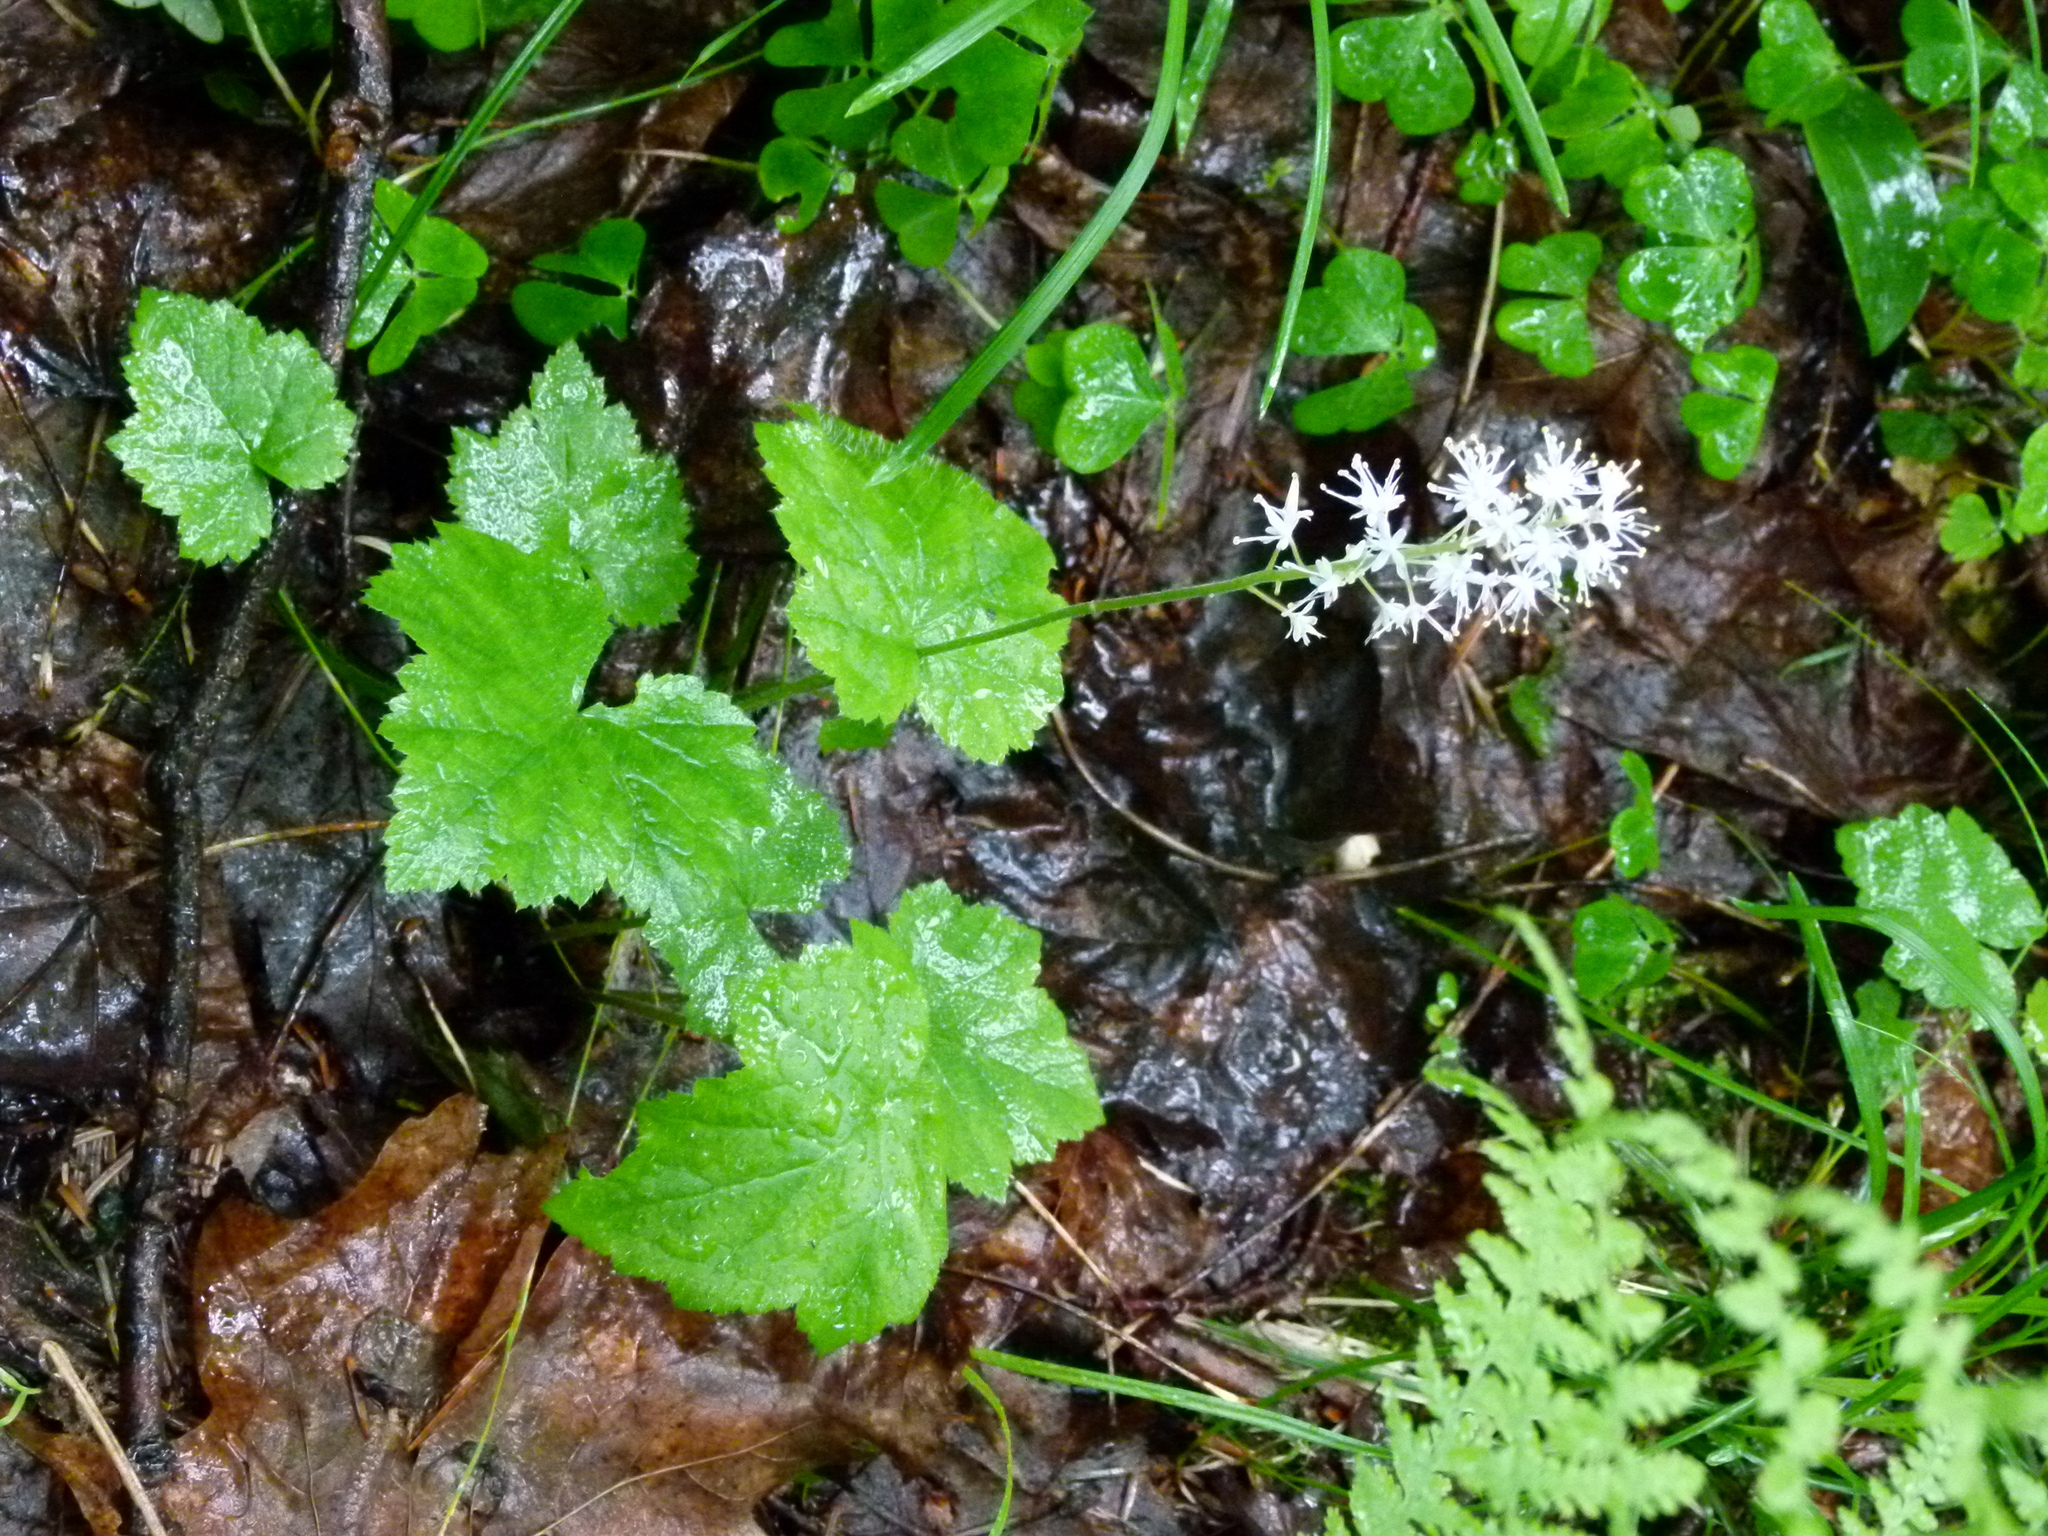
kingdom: Plantae
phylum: Tracheophyta
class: Magnoliopsida
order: Saxifragales
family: Saxifragaceae
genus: Tiarella
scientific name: Tiarella stolonifera
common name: Stoloniferous foamflower
